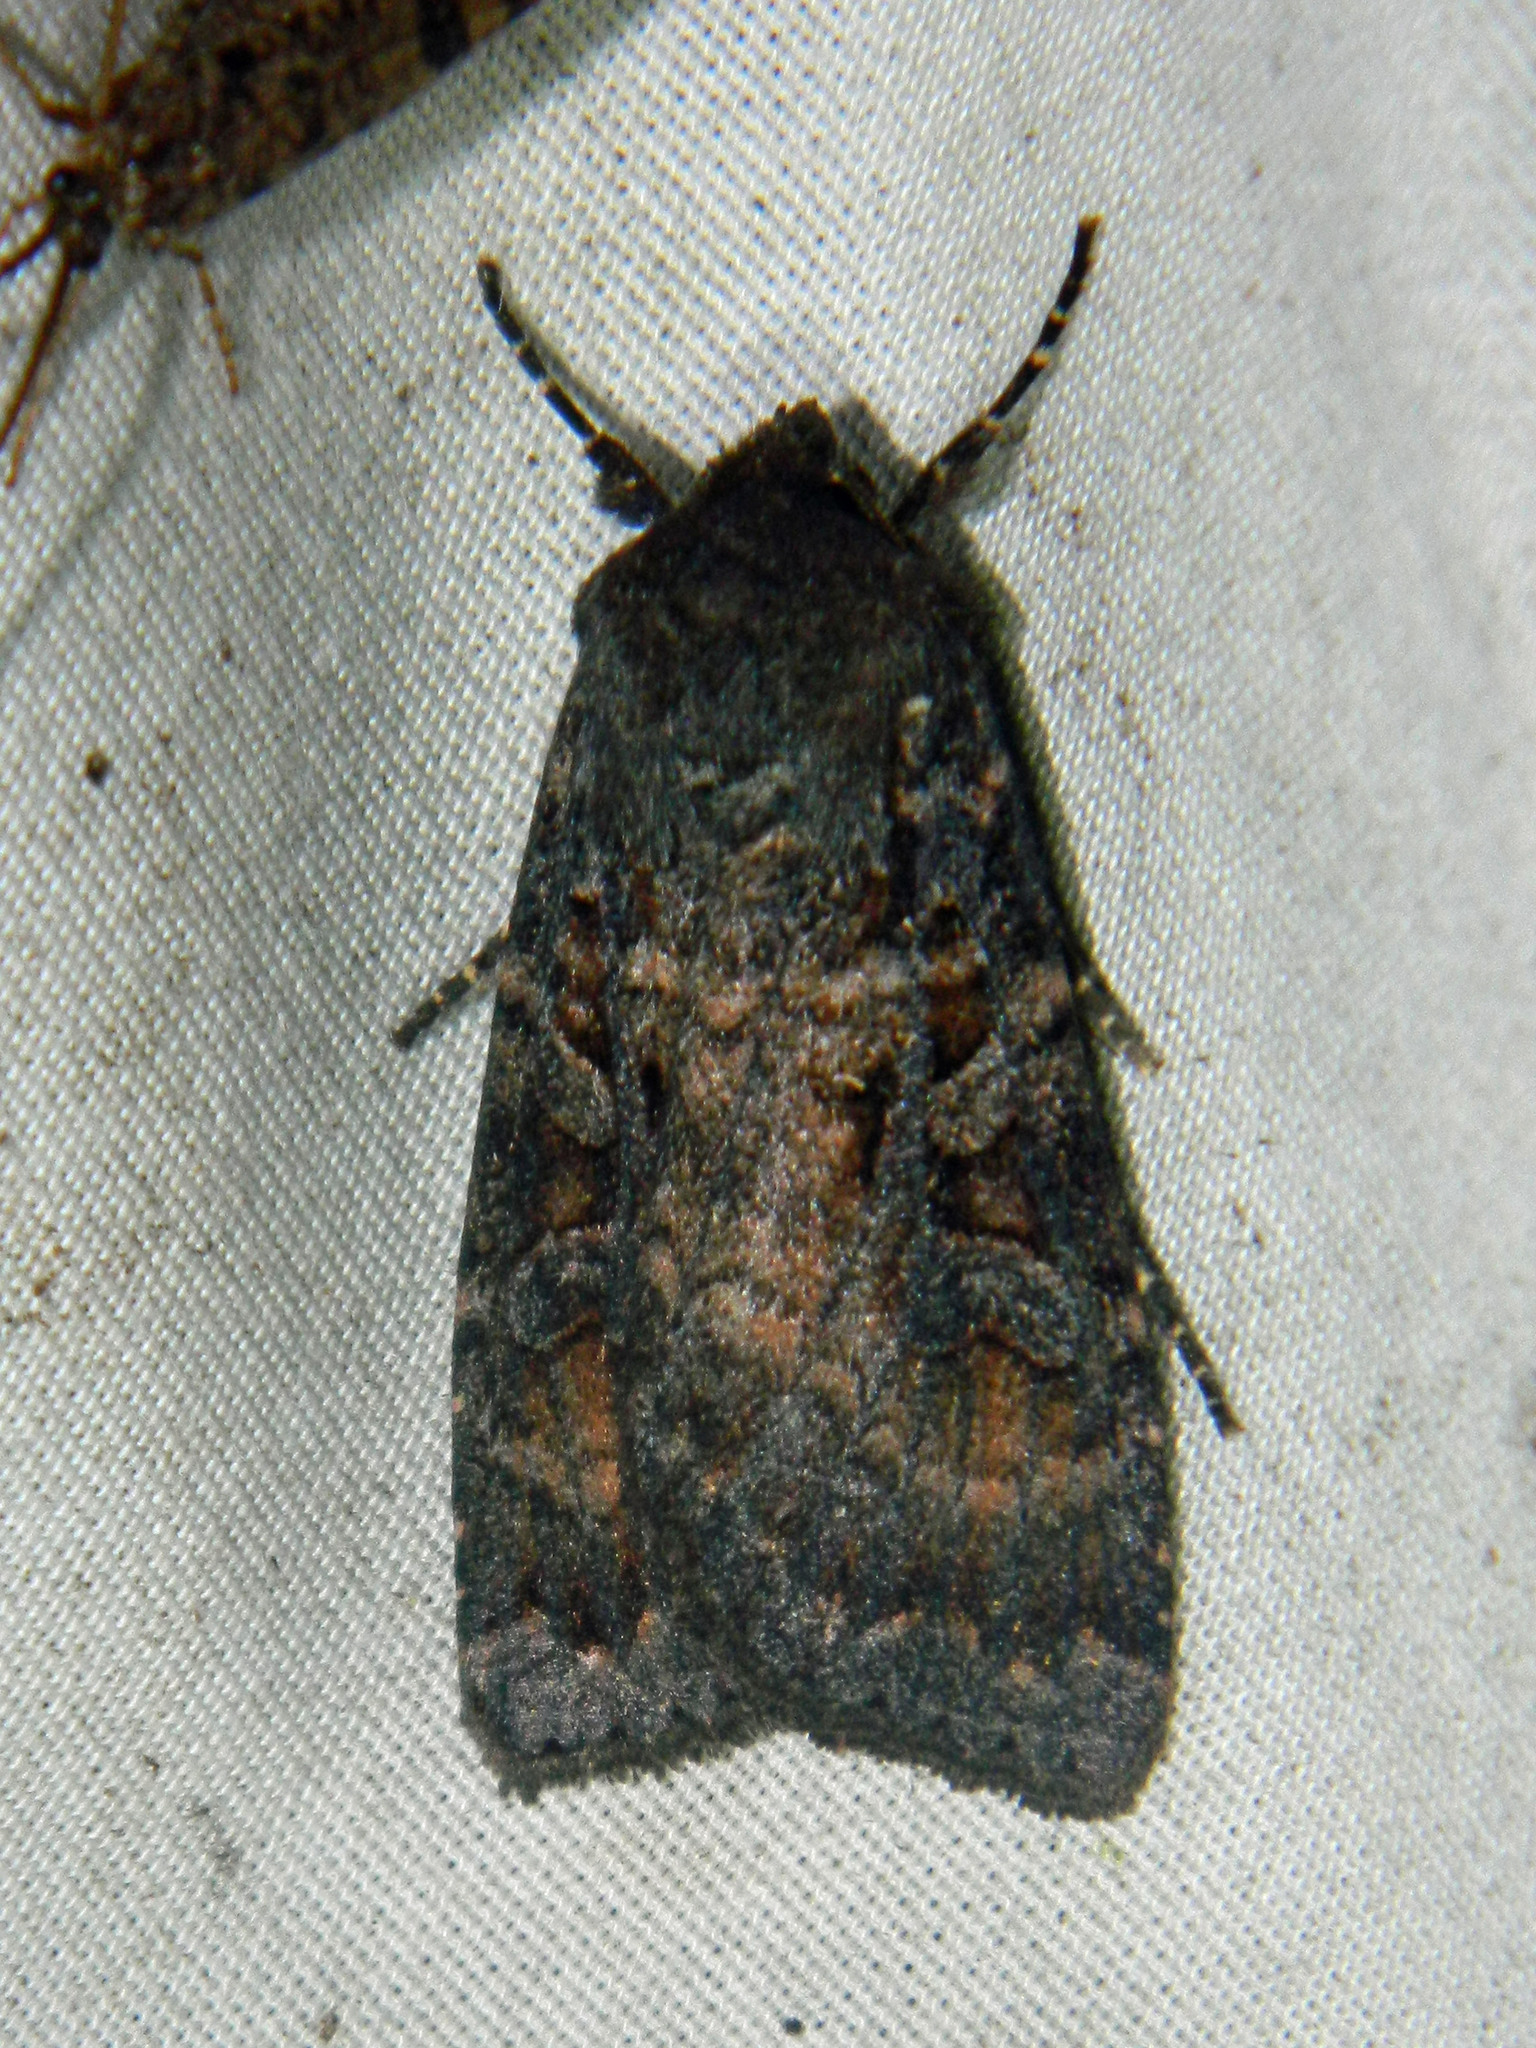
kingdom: Animalia
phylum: Arthropoda
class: Insecta
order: Lepidoptera
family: Noctuidae
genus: Eurois
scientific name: Eurois astricta
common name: Great brown dart
